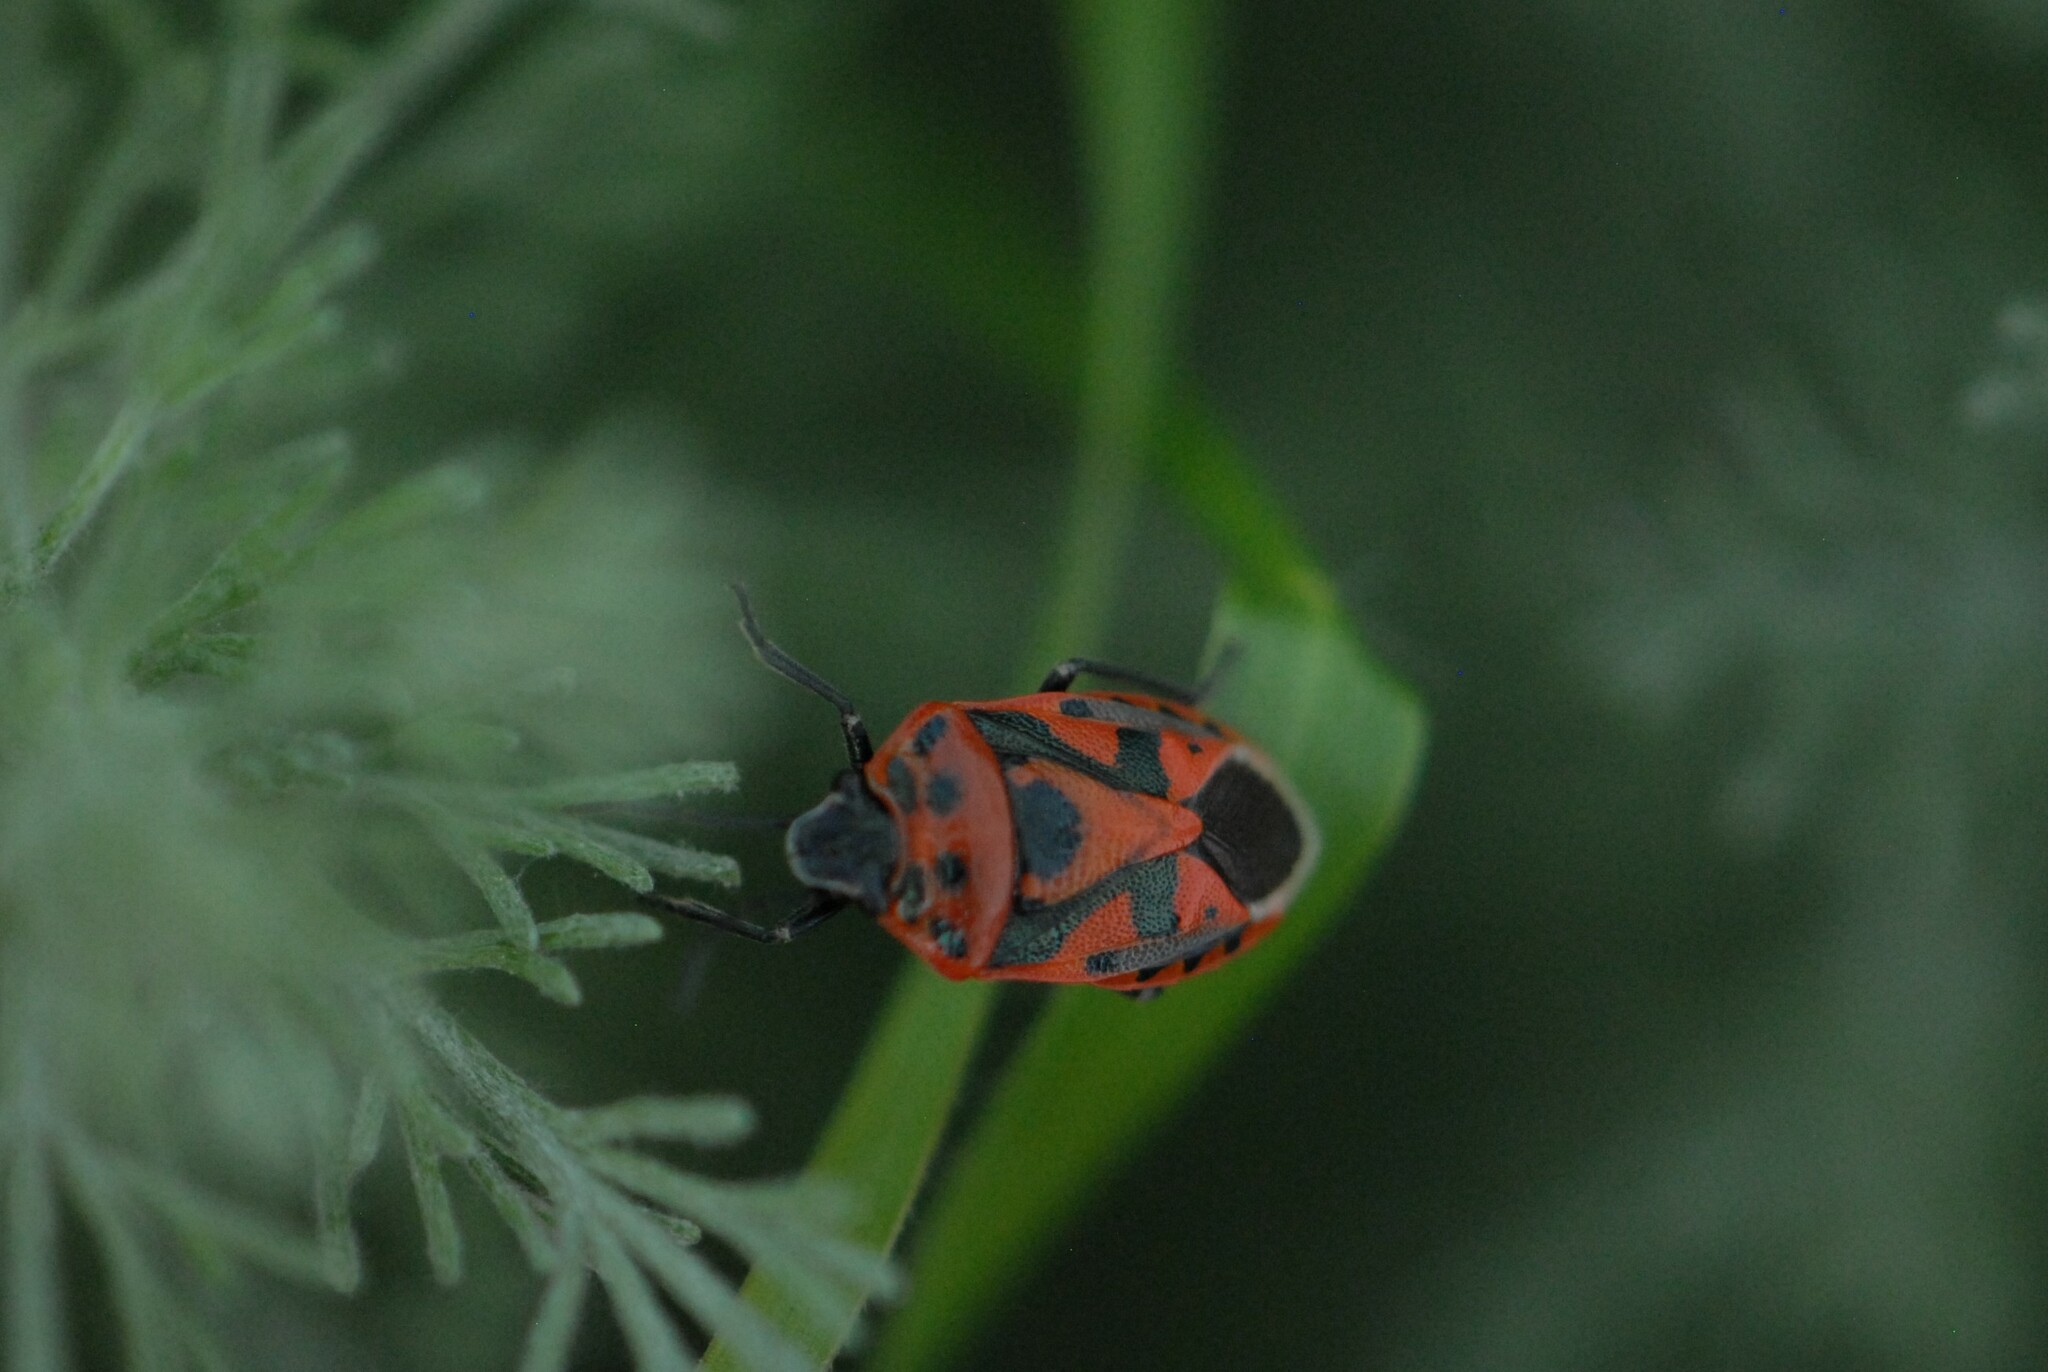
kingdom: Animalia
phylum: Arthropoda
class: Insecta
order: Hemiptera
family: Pentatomidae
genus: Eurydema
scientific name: Eurydema ornata
